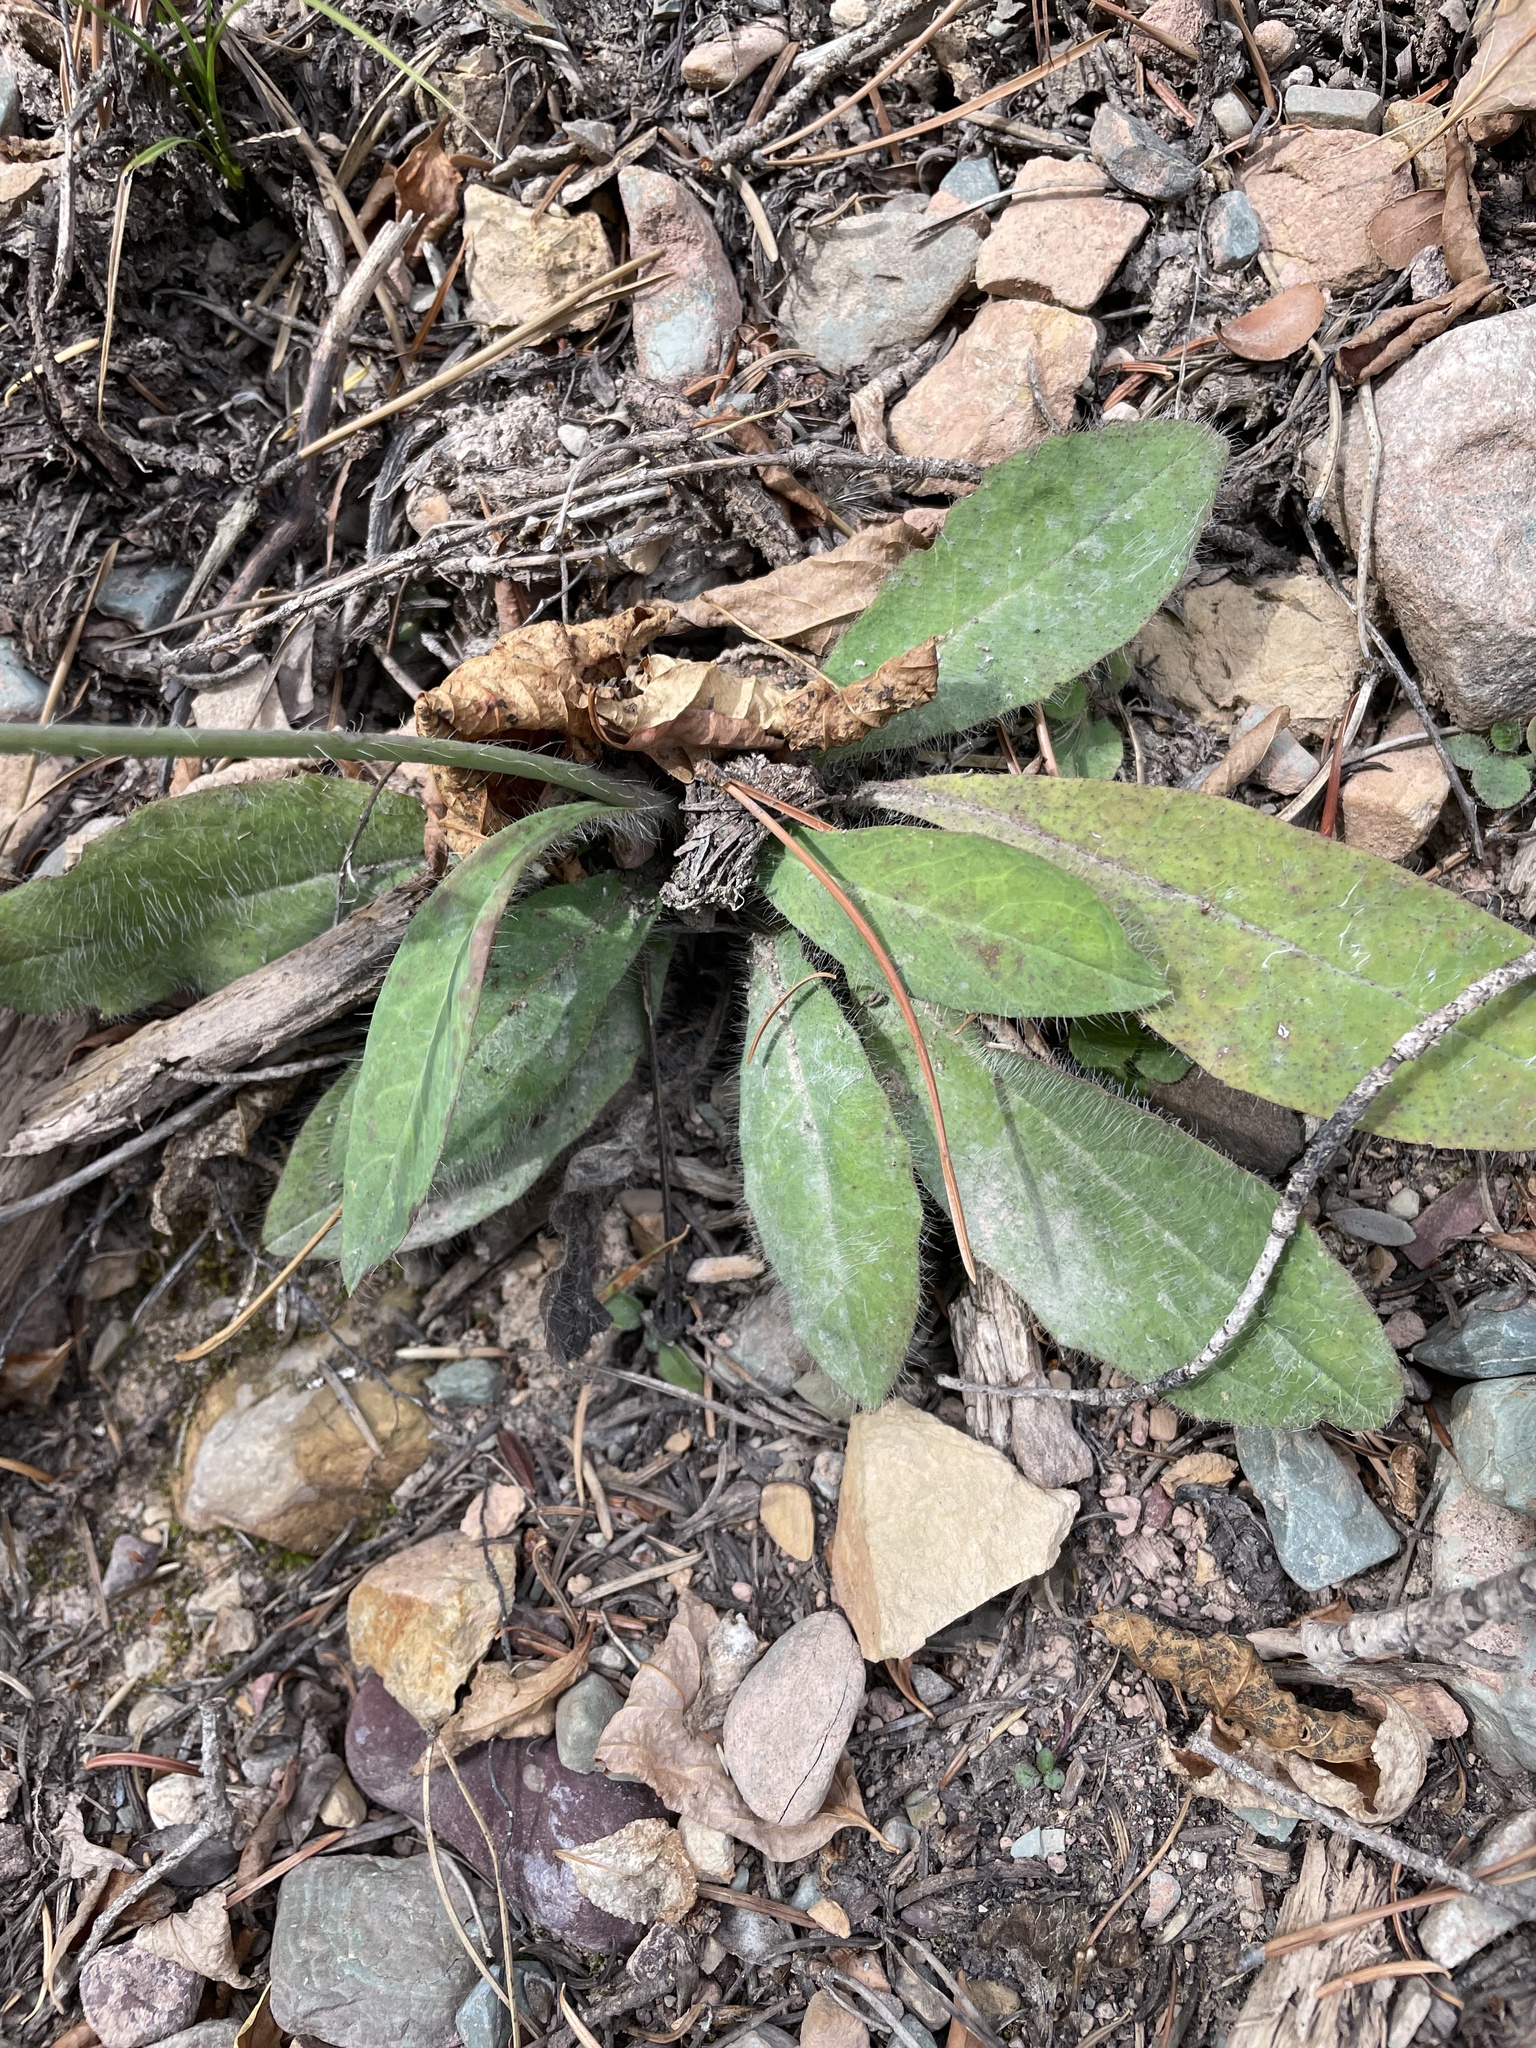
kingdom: Plantae
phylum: Tracheophyta
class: Magnoliopsida
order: Asterales
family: Asteraceae
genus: Hieracium
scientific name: Hieracium albiflorum
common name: White hawkweed
